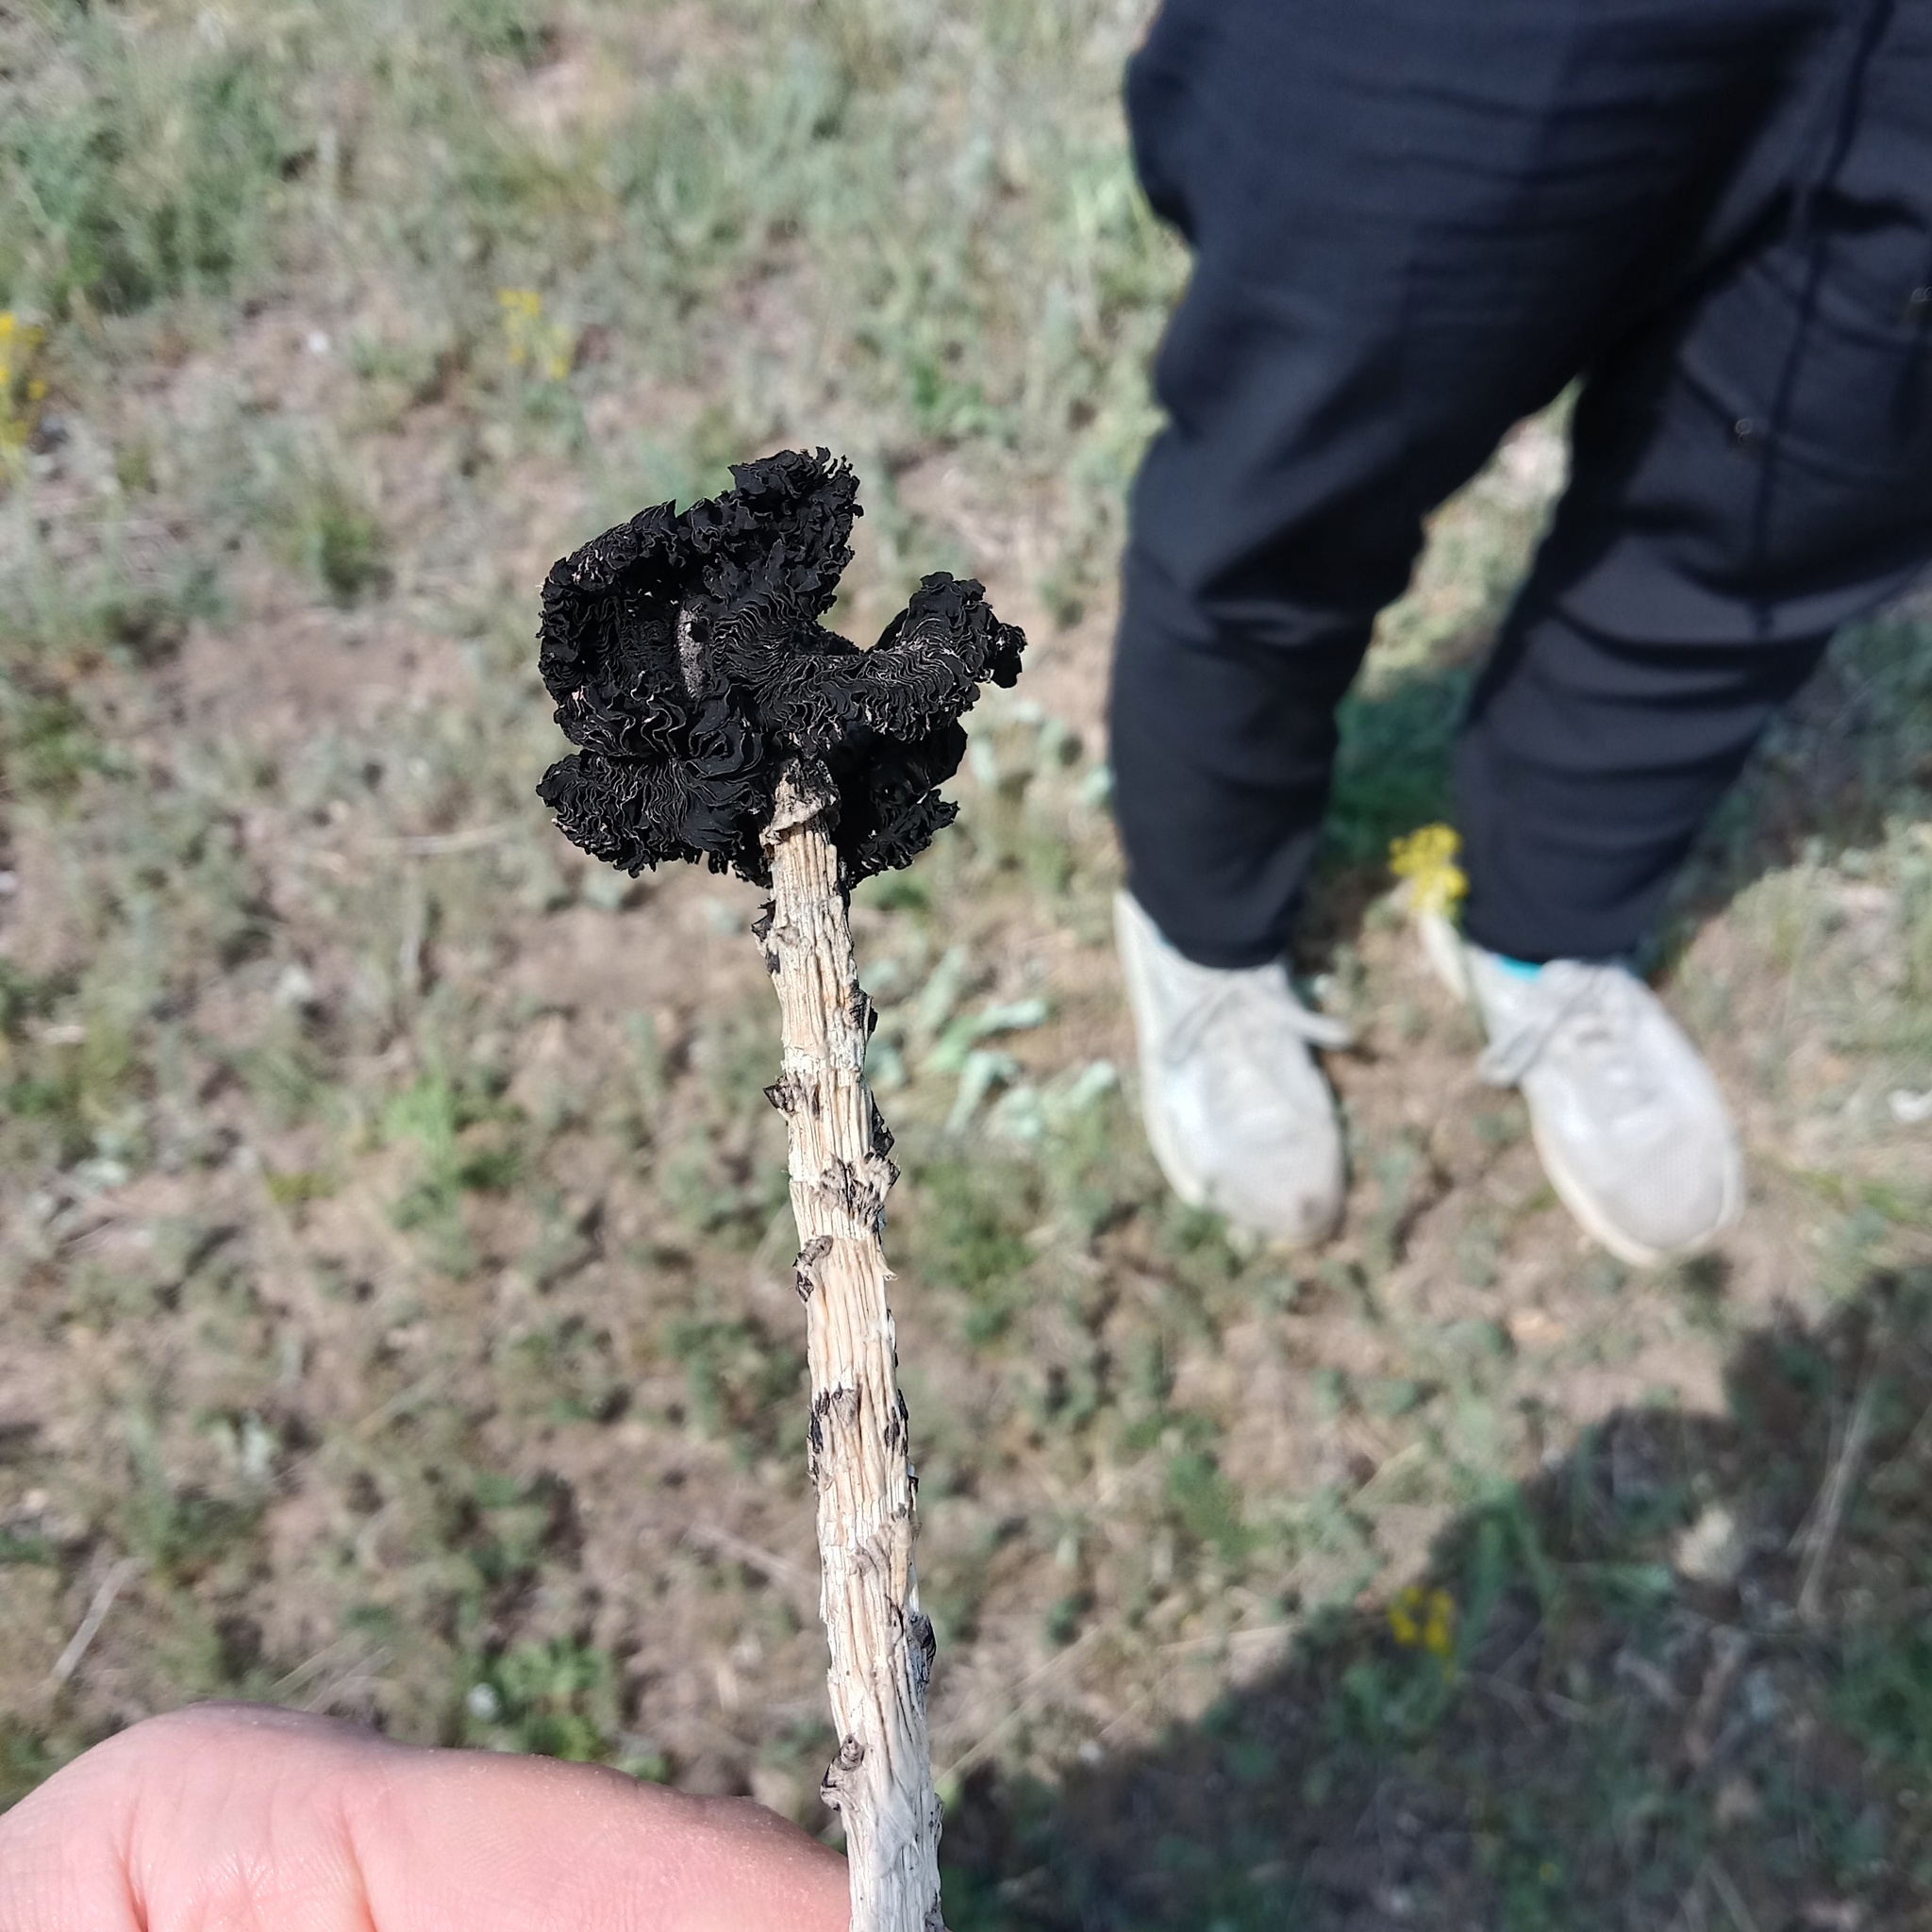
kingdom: Fungi
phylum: Basidiomycota
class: Agaricomycetes
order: Agaricales
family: Agaricaceae
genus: Montagnea
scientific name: Montagnea arenaria
